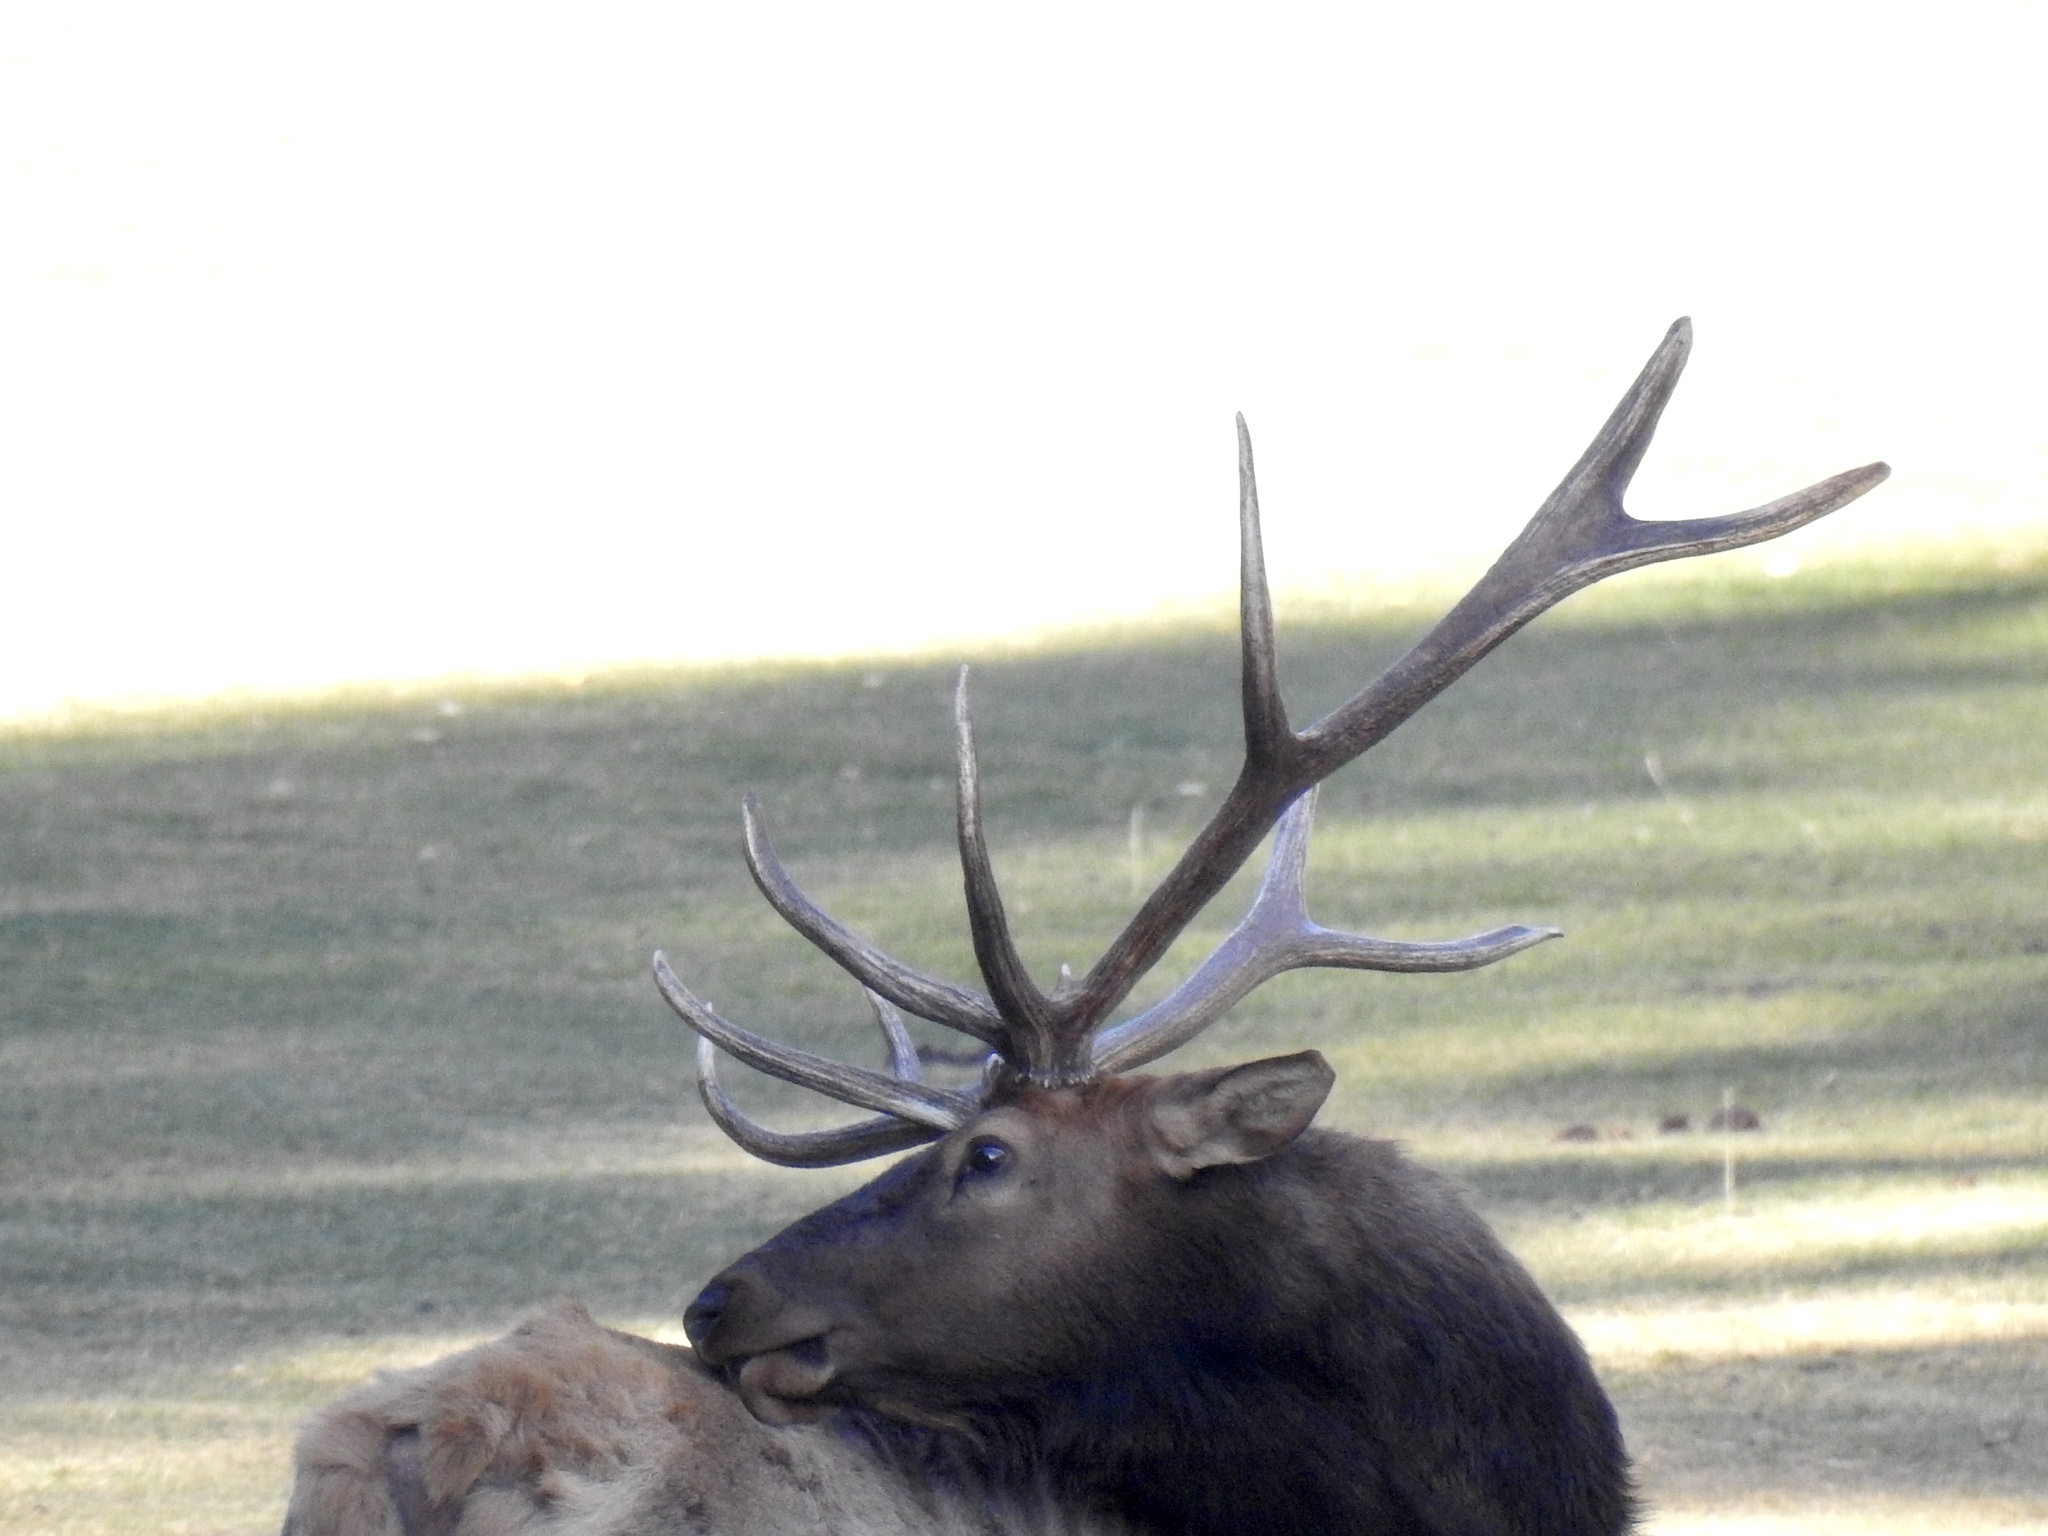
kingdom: Animalia
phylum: Chordata
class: Mammalia
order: Artiodactyla
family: Cervidae
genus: Cervus
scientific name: Cervus elaphus
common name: Red deer
